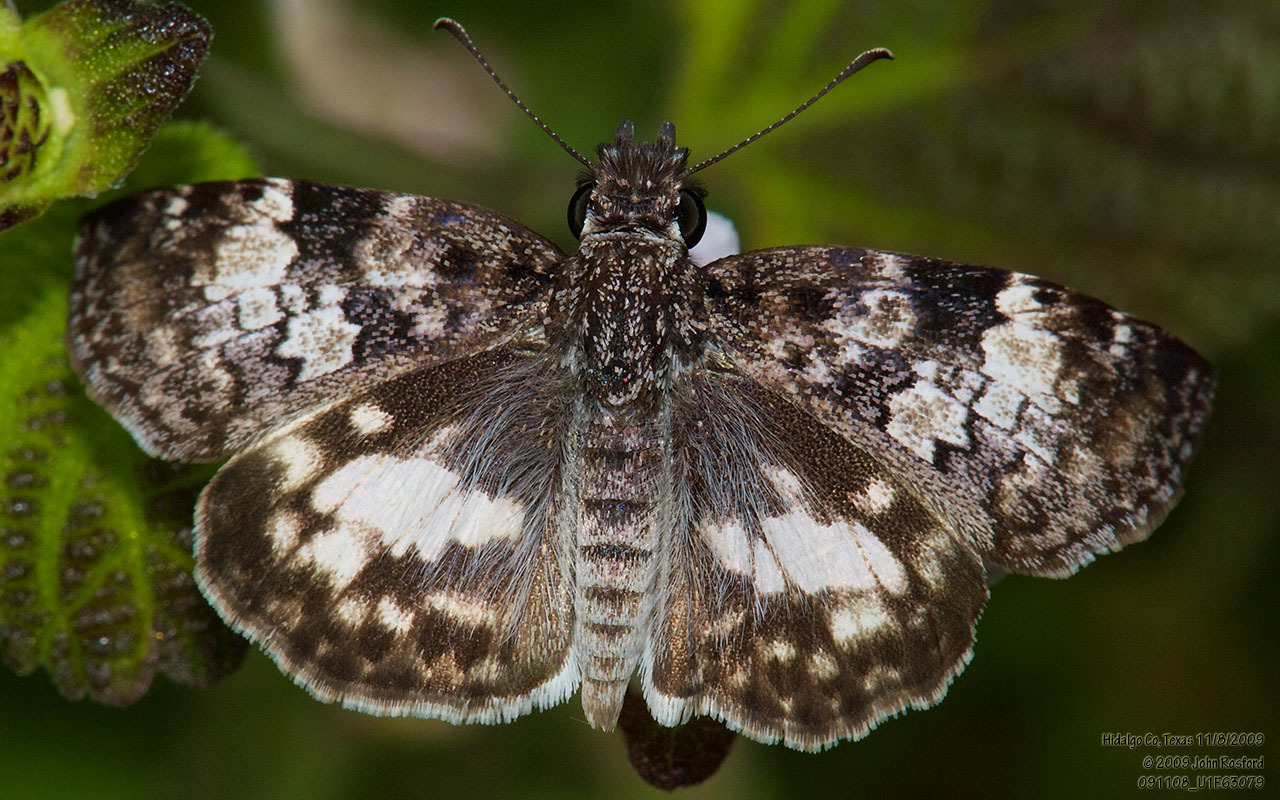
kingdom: Animalia
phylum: Arthropoda
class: Insecta
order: Lepidoptera
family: Hesperiidae
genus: Chiothion
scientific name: Chiothion georgina
